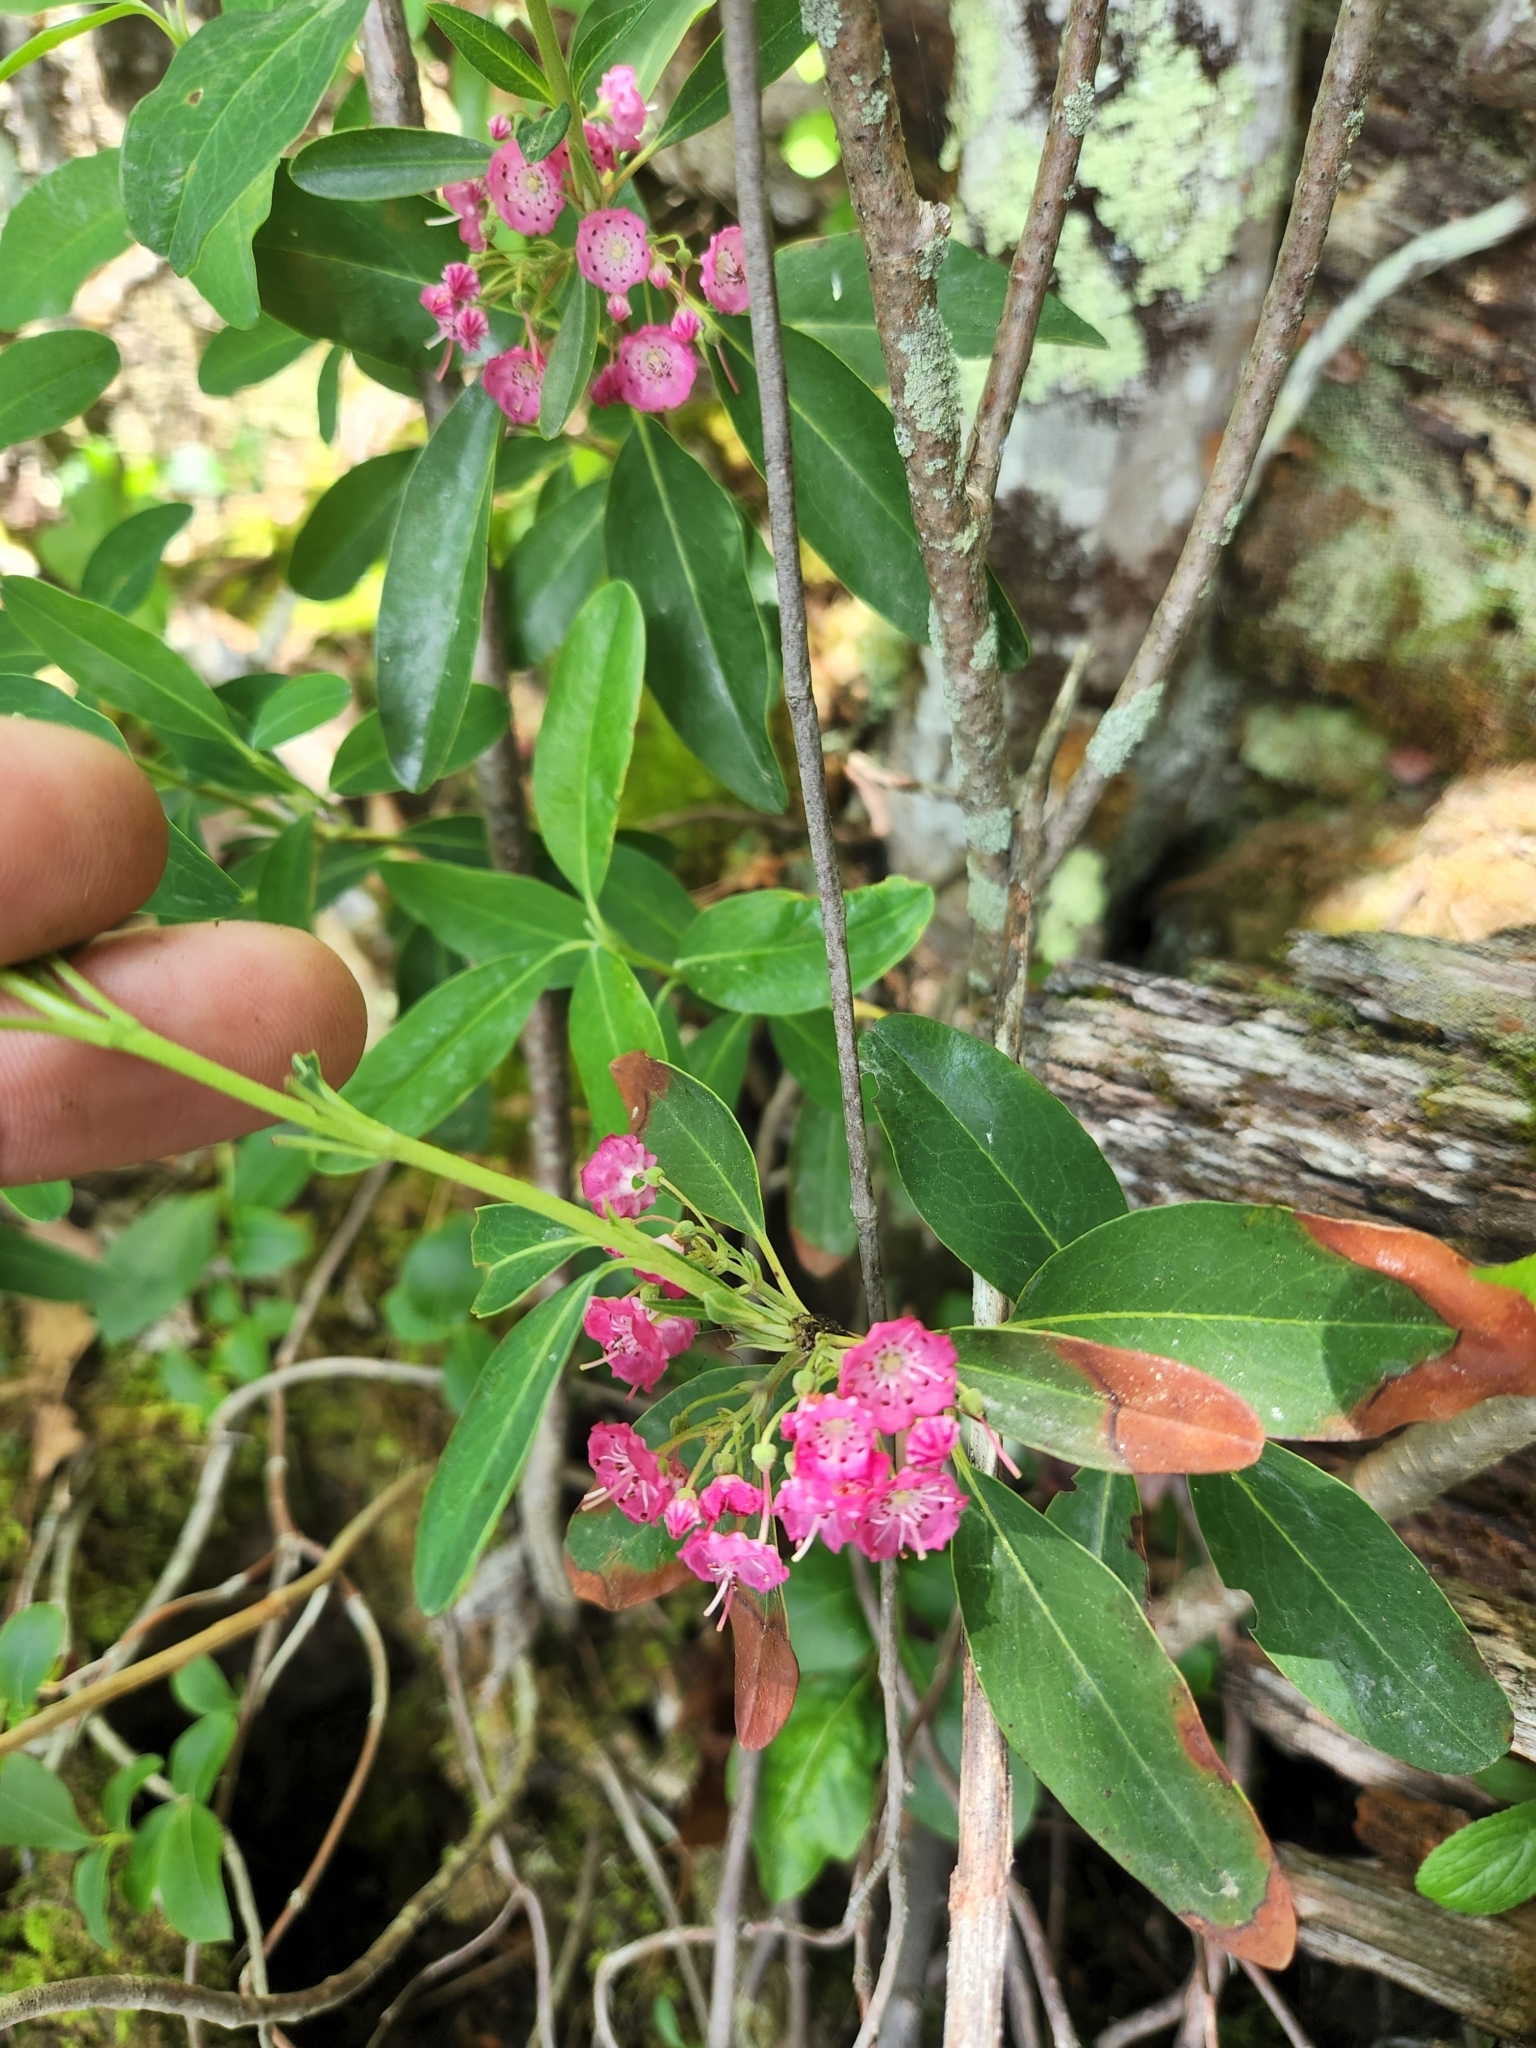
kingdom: Plantae
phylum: Tracheophyta
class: Magnoliopsida
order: Ericales
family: Ericaceae
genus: Kalmia
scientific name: Kalmia angustifolia
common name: Sheep-laurel
